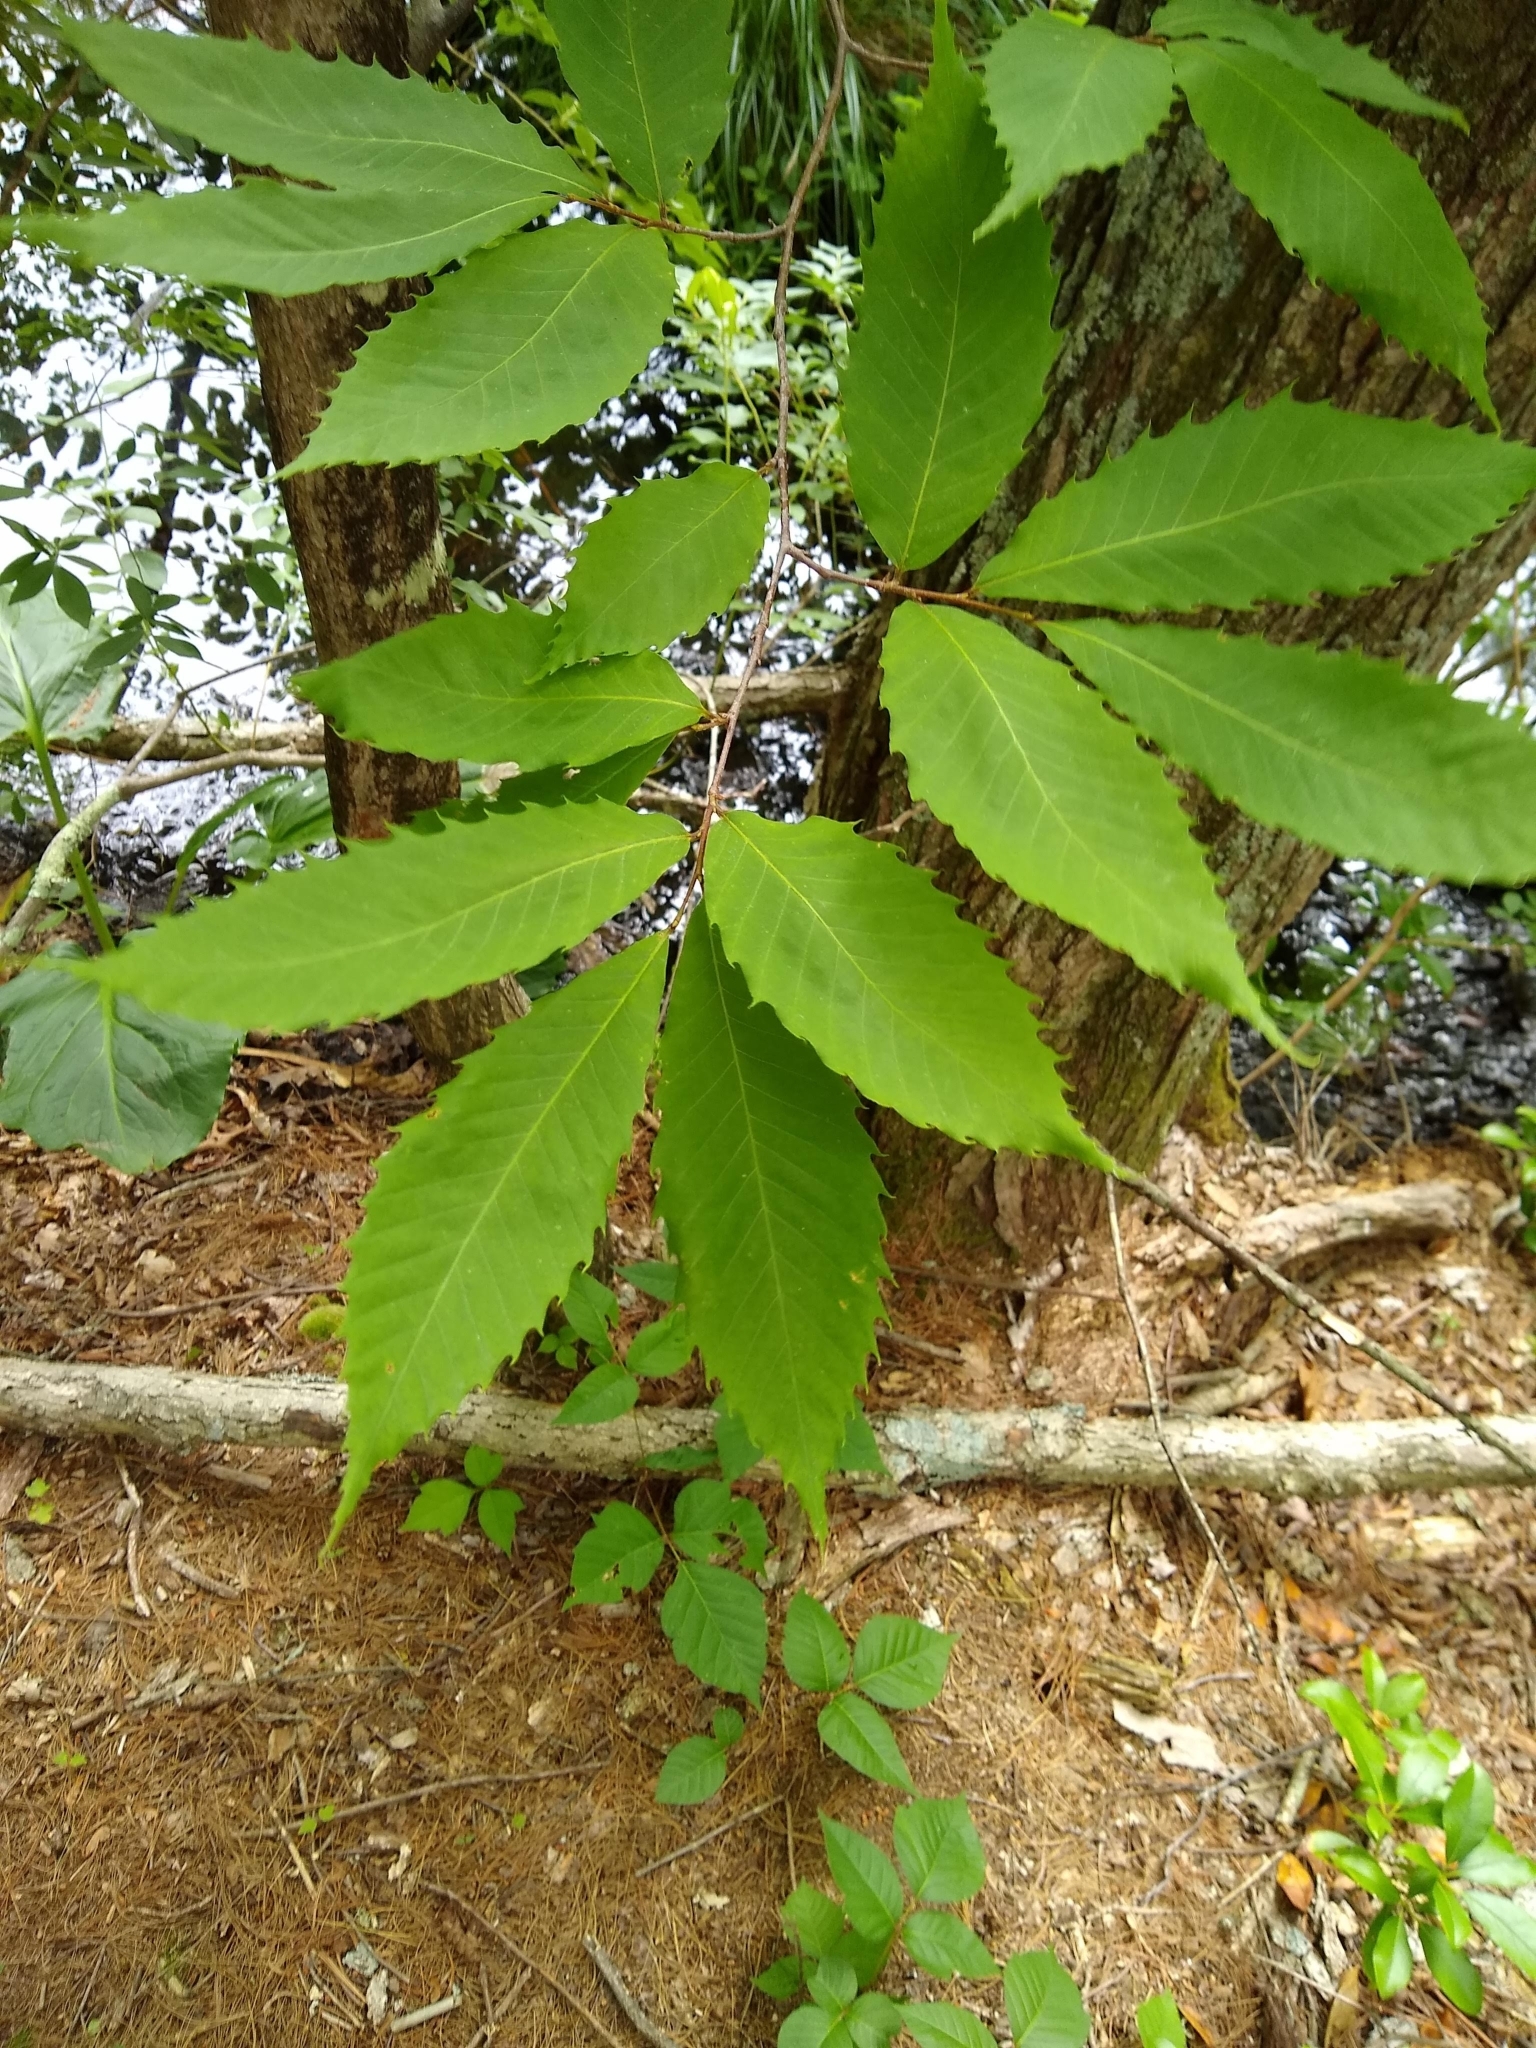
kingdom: Plantae
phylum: Tracheophyta
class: Magnoliopsida
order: Fagales
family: Fagaceae
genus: Castanea
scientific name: Castanea dentata
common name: American chestnut
